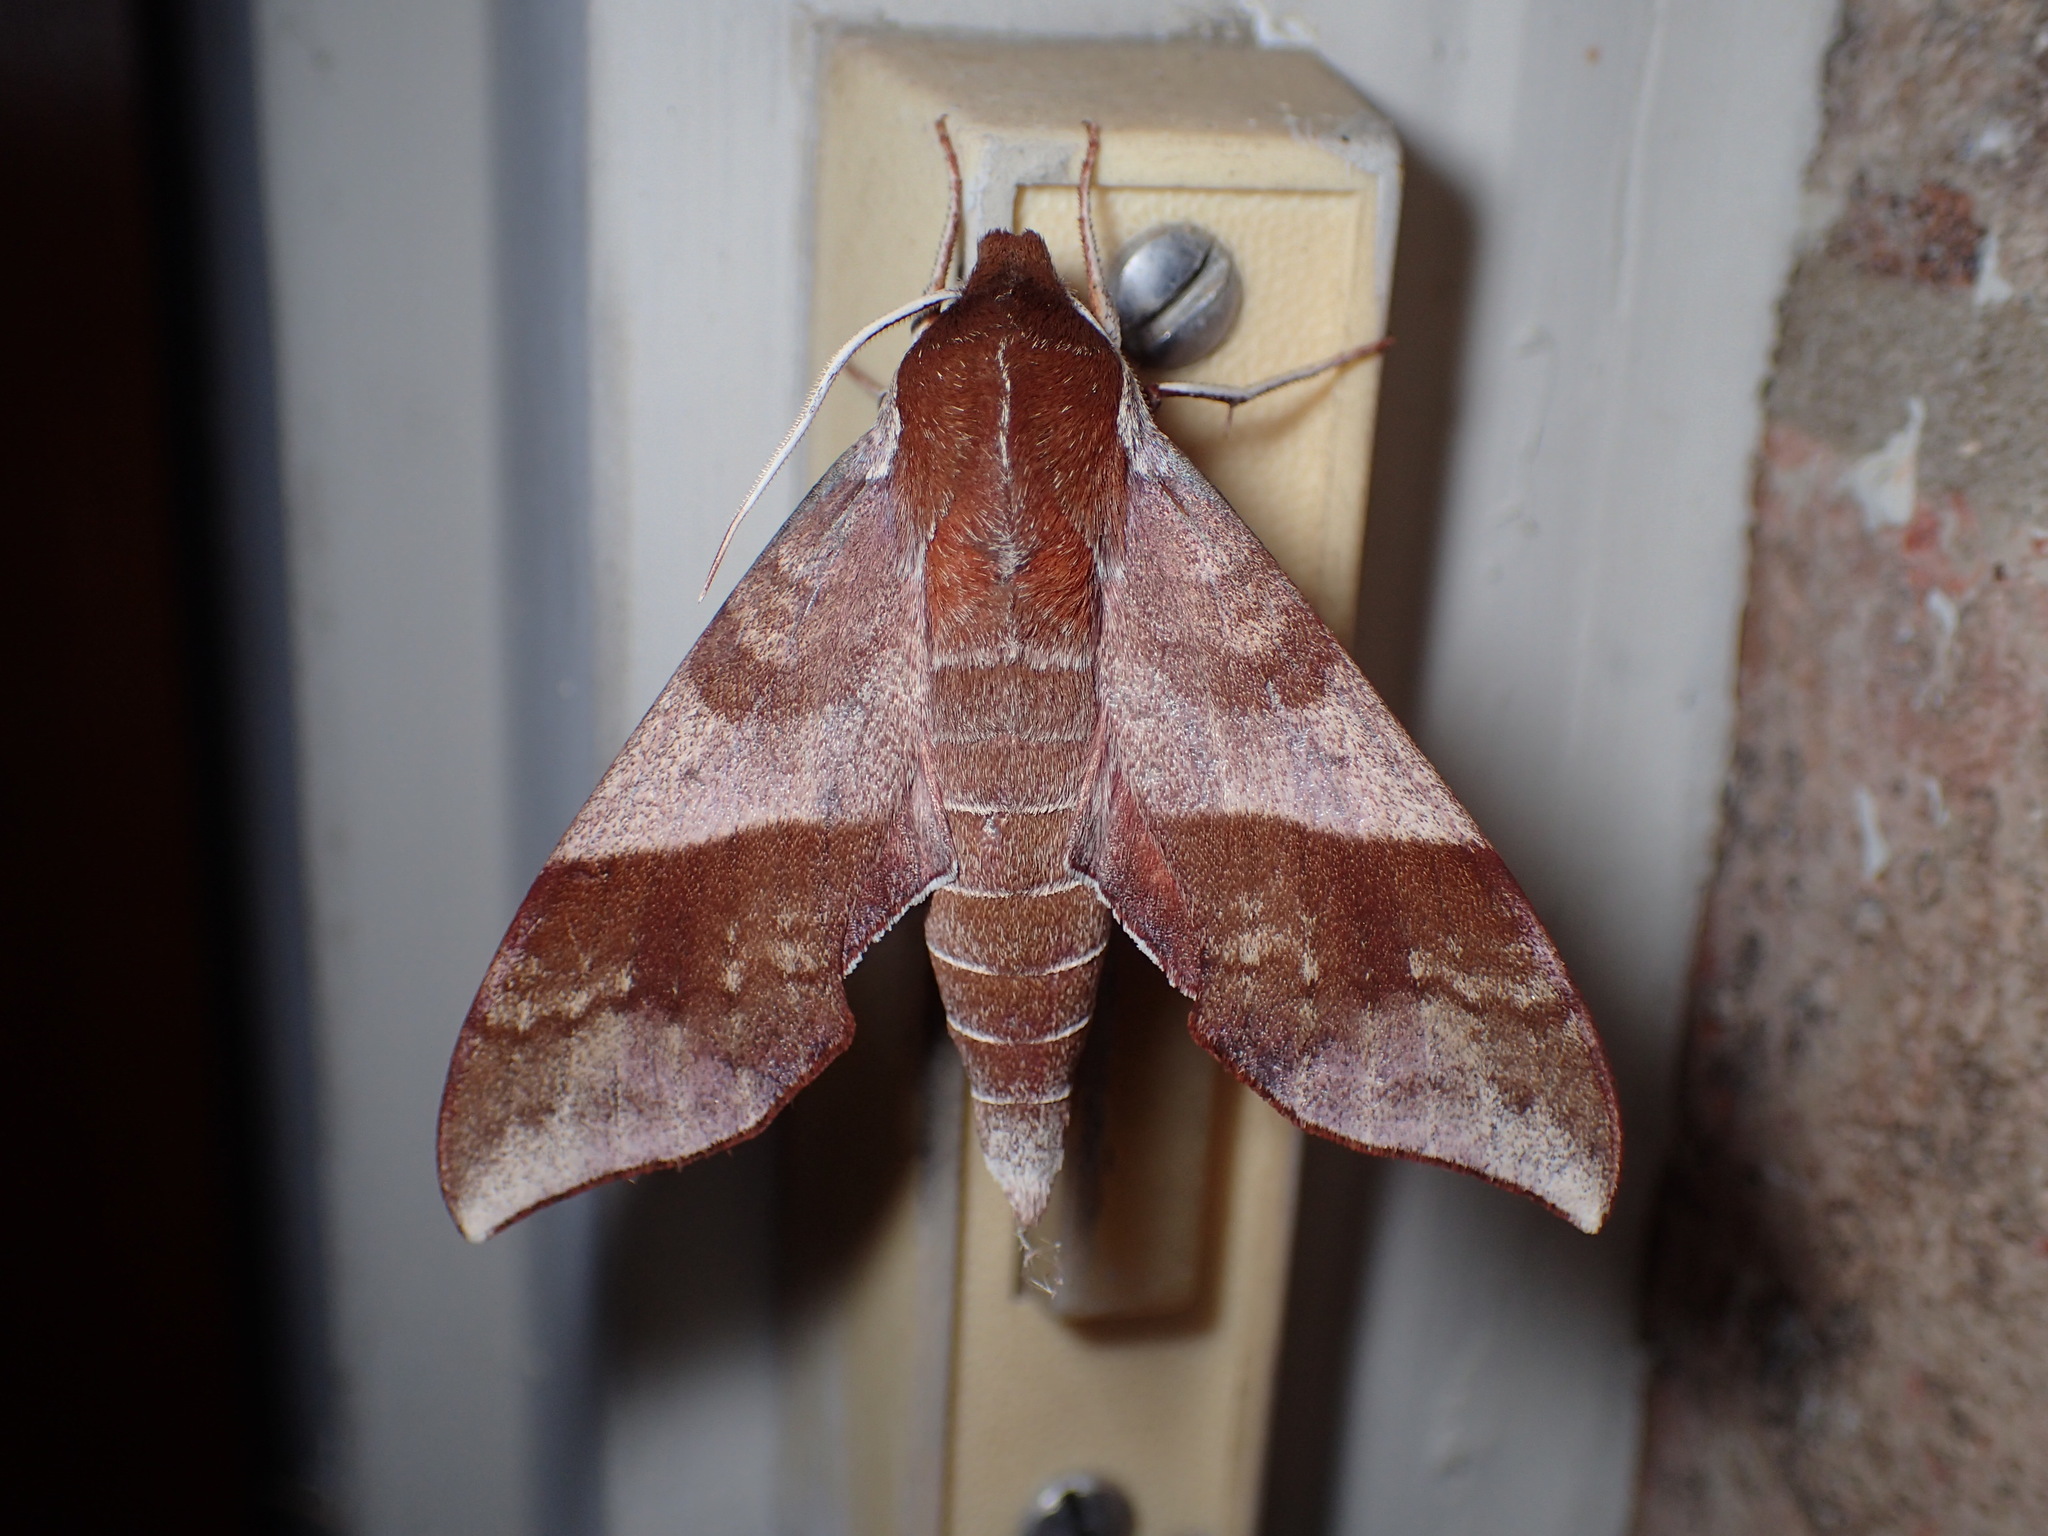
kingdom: Animalia
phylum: Arthropoda
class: Insecta
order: Lepidoptera
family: Sphingidae
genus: Darapsa
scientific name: Darapsa choerilus
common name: Azalea sphinx
